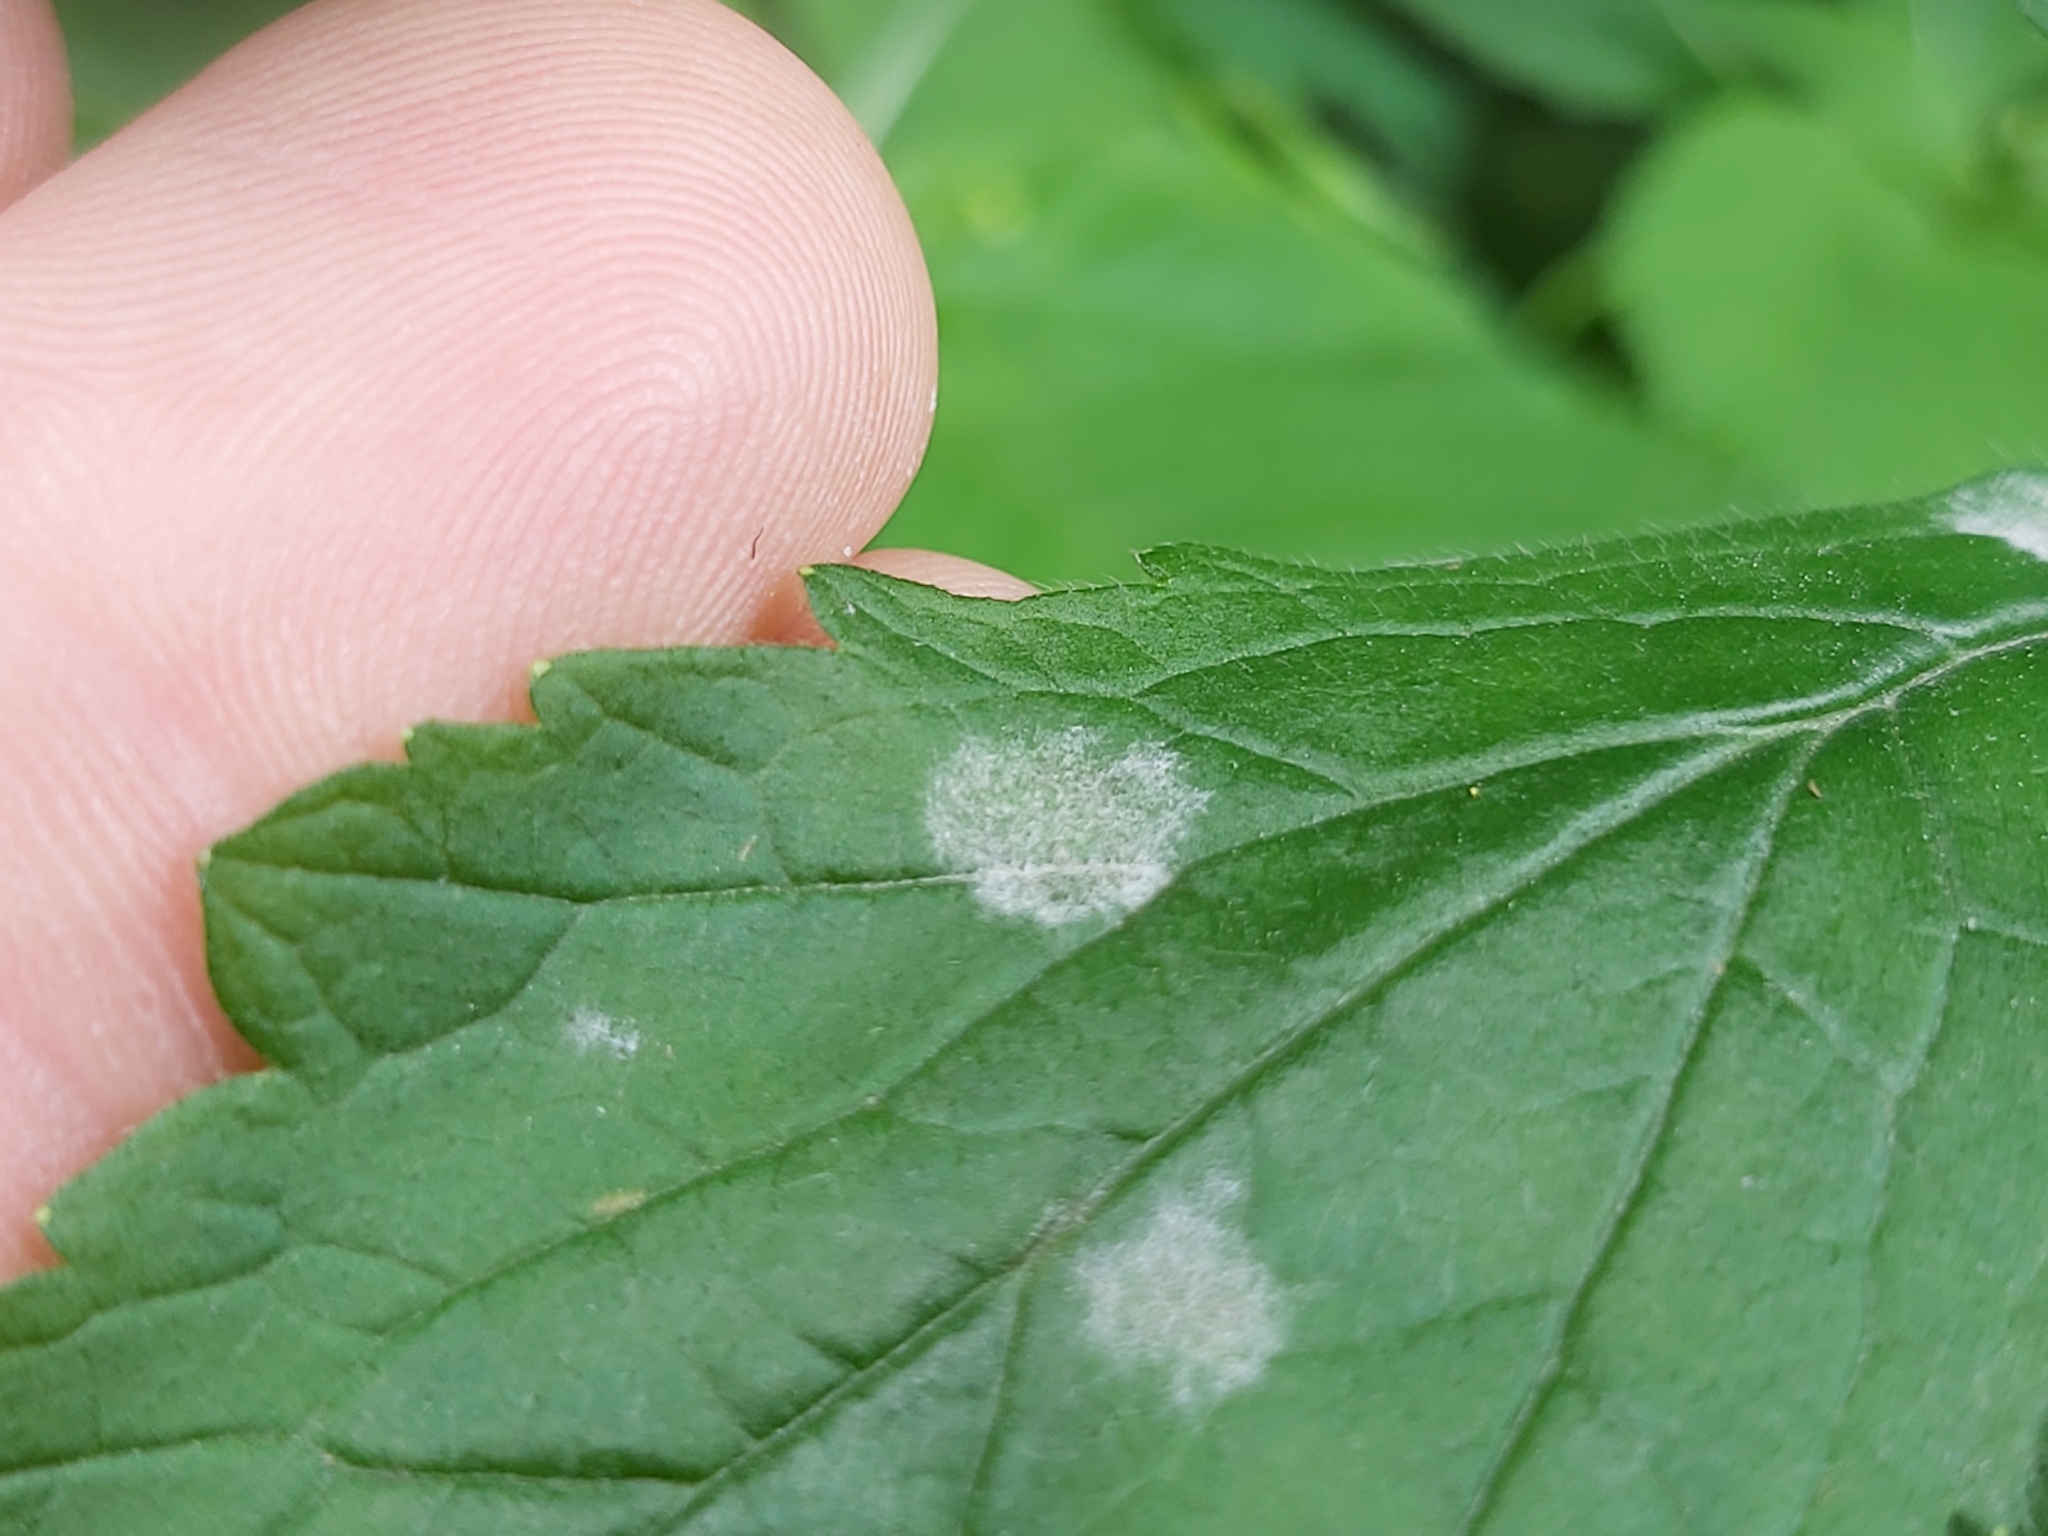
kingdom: Fungi
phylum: Ascomycota
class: Leotiomycetes
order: Helotiales
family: Erysiphaceae
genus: Podosphaera
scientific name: Podosphaera aphanis
